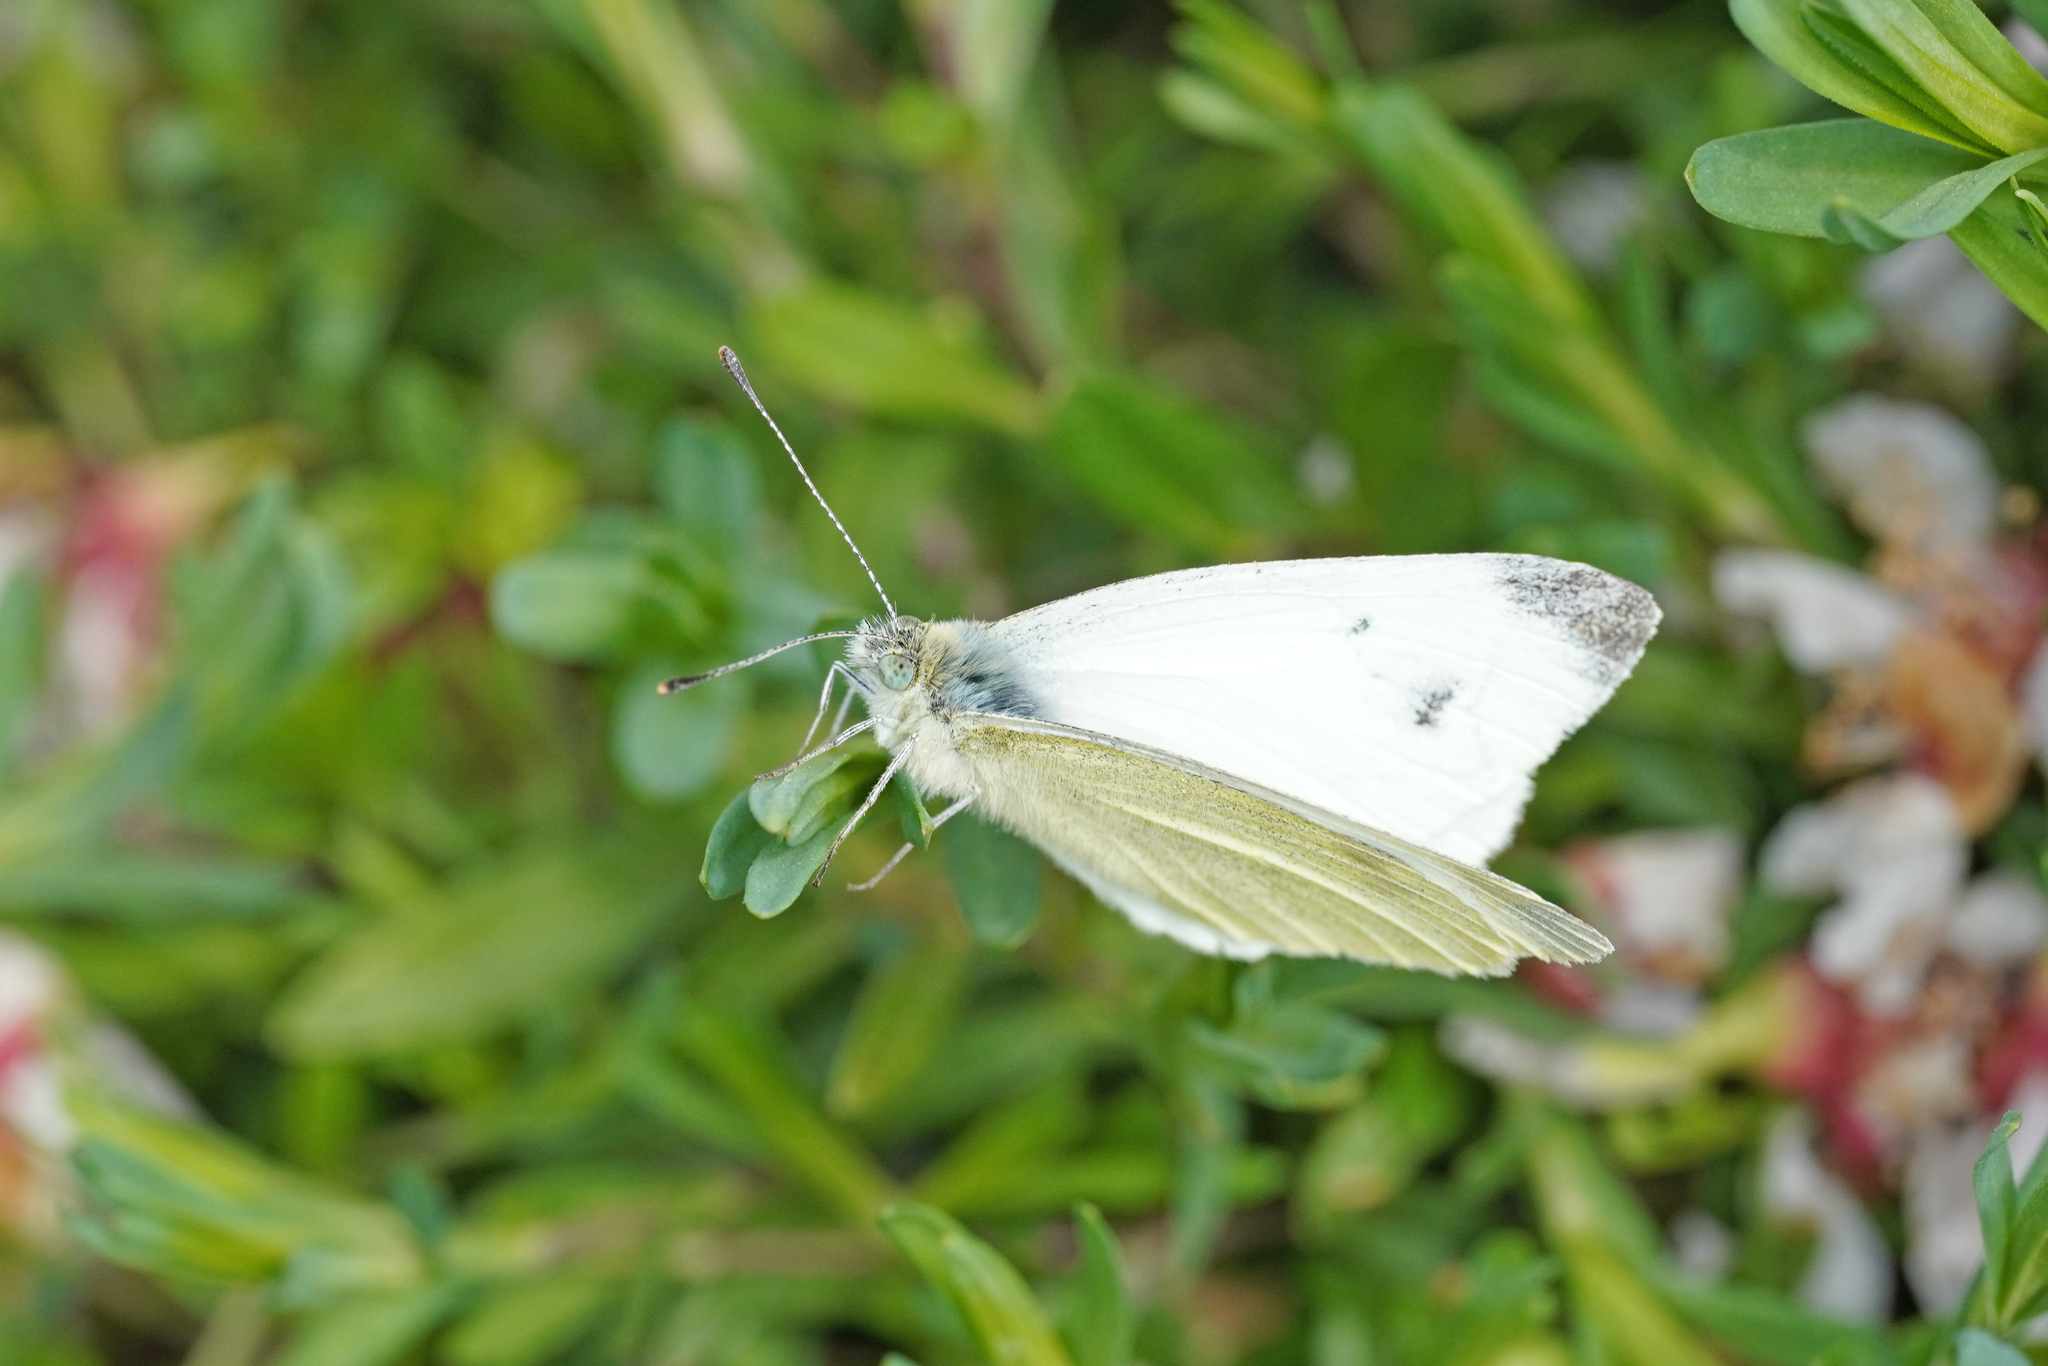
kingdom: Animalia
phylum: Arthropoda
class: Insecta
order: Lepidoptera
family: Pieridae
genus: Pieris
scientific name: Pieris rapae
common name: Small white
